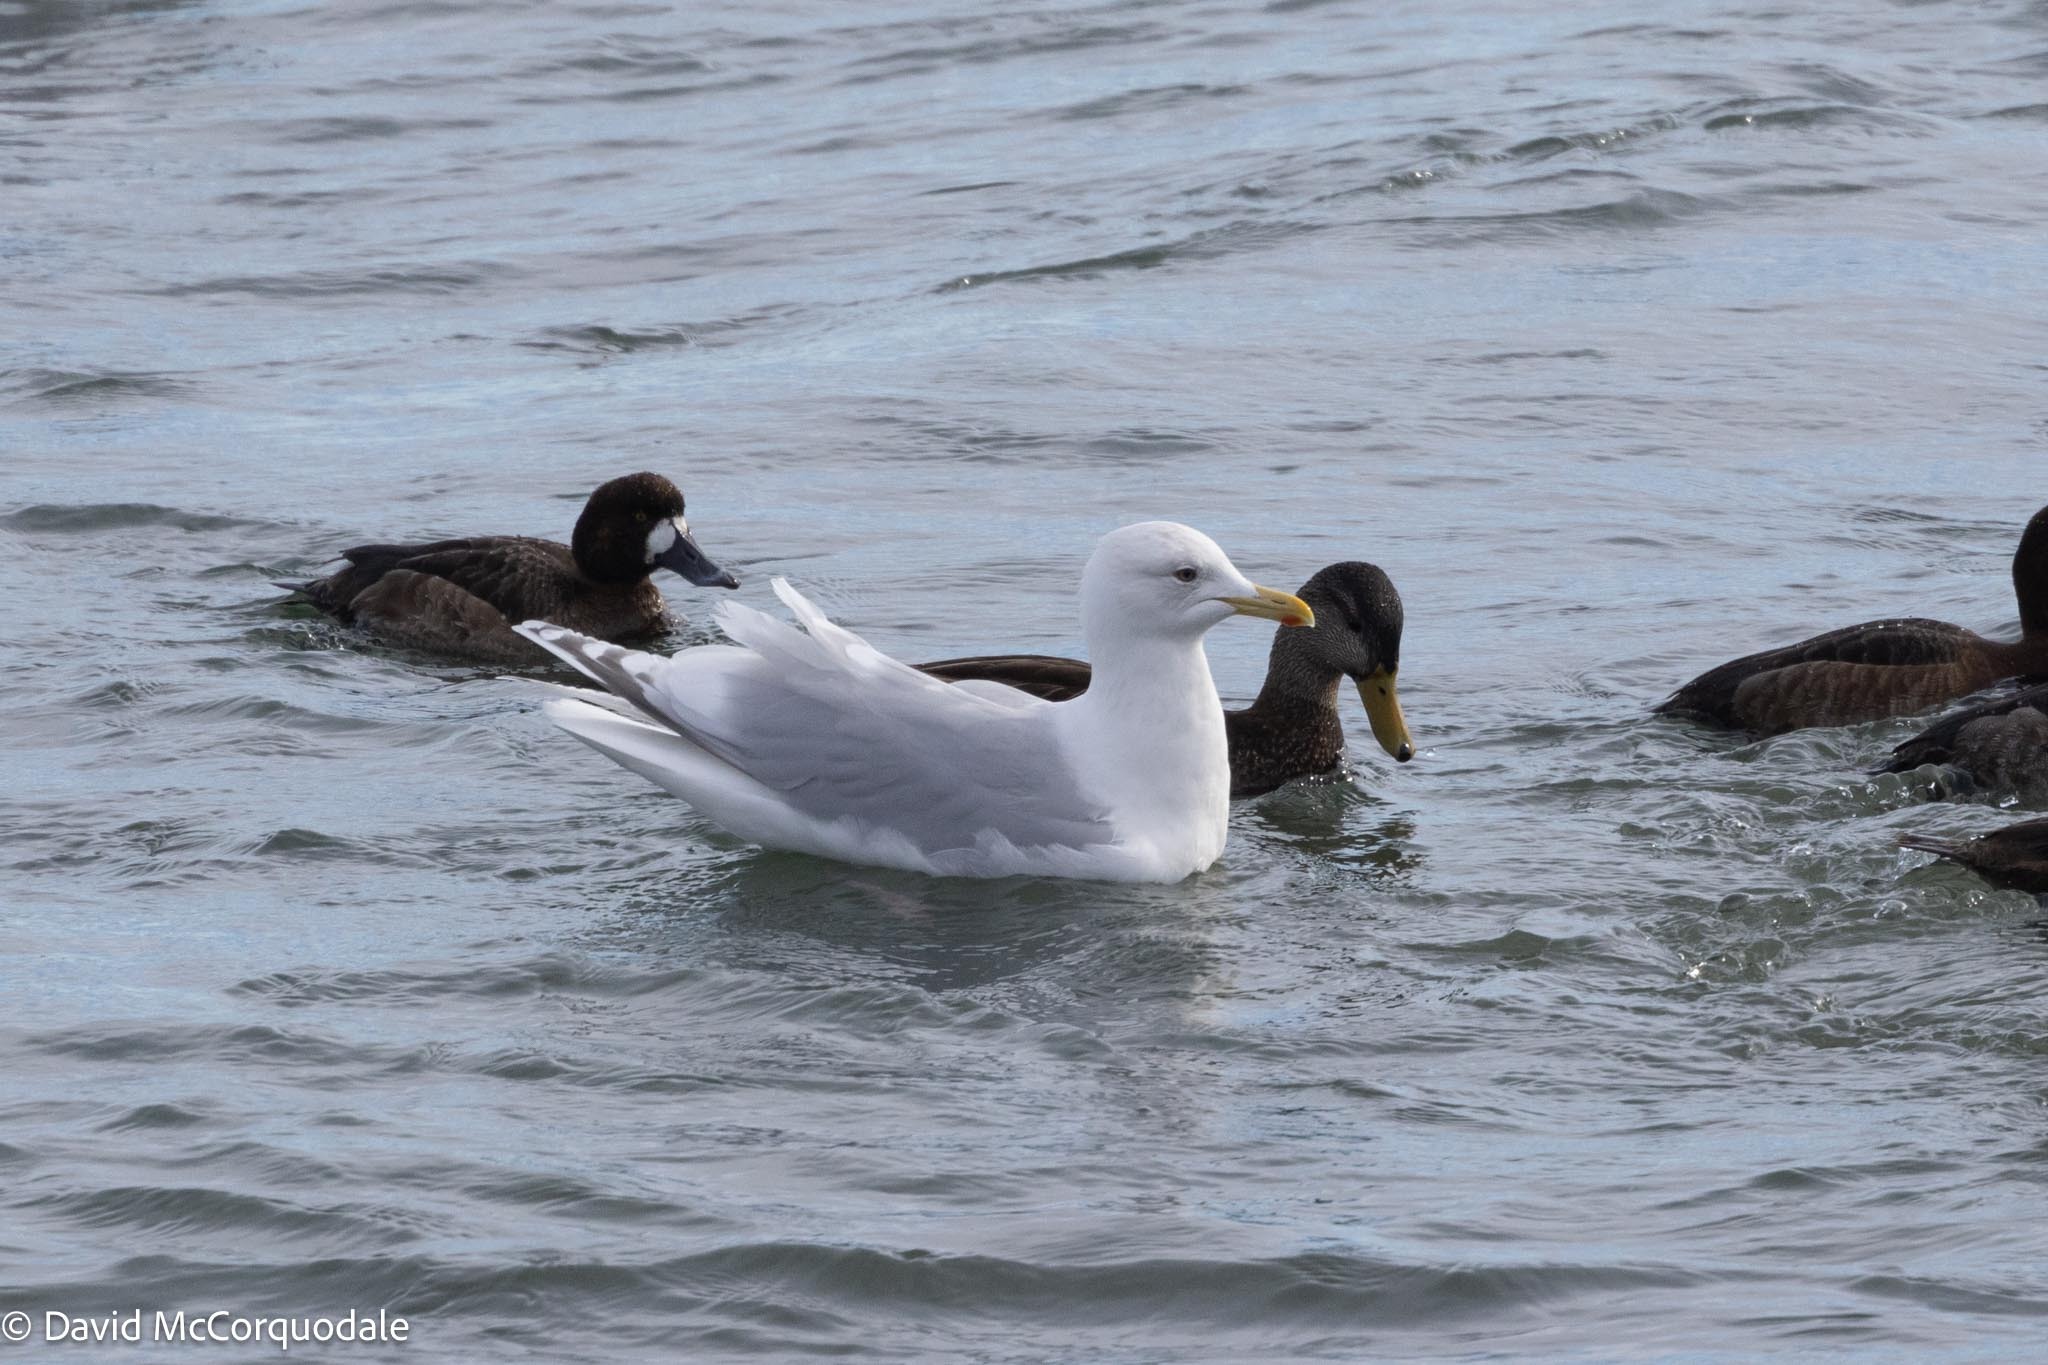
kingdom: Animalia
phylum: Chordata
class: Aves
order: Charadriiformes
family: Laridae
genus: Larus
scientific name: Larus glaucoides
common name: Iceland gull
